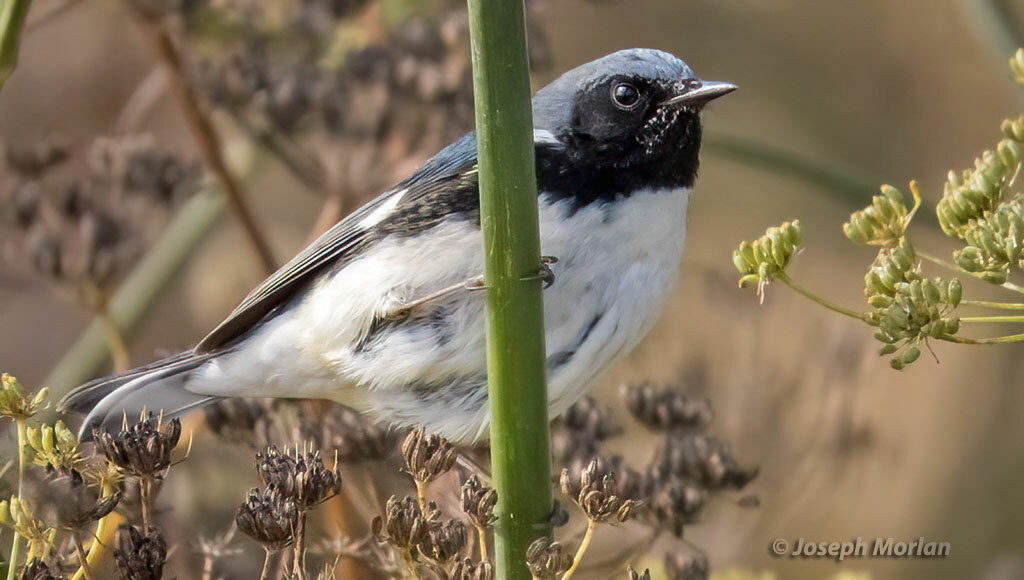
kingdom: Animalia
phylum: Chordata
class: Aves
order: Passeriformes
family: Parulidae
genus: Setophaga
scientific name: Setophaga caerulescens
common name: Black-throated blue warbler
